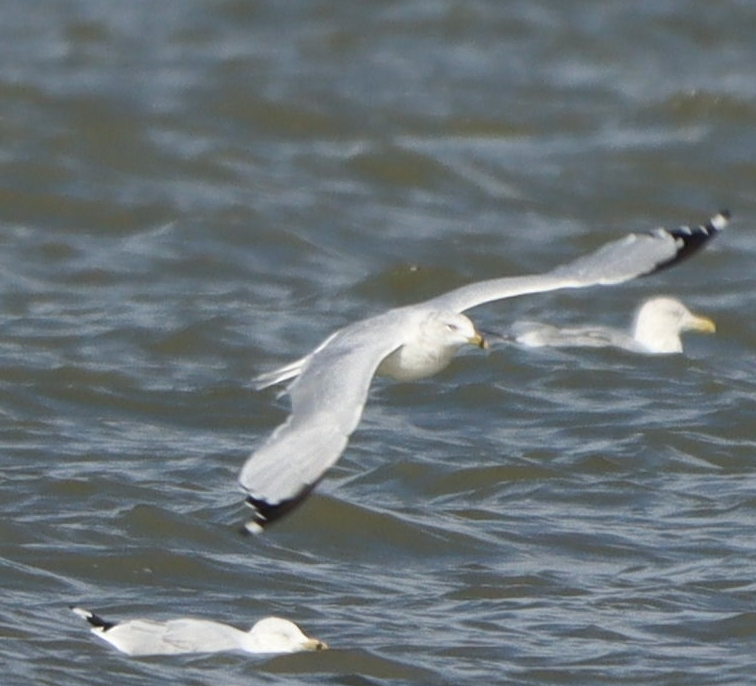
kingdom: Animalia
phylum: Chordata
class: Aves
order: Charadriiformes
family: Laridae
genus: Larus
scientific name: Larus delawarensis
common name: Ring-billed gull
